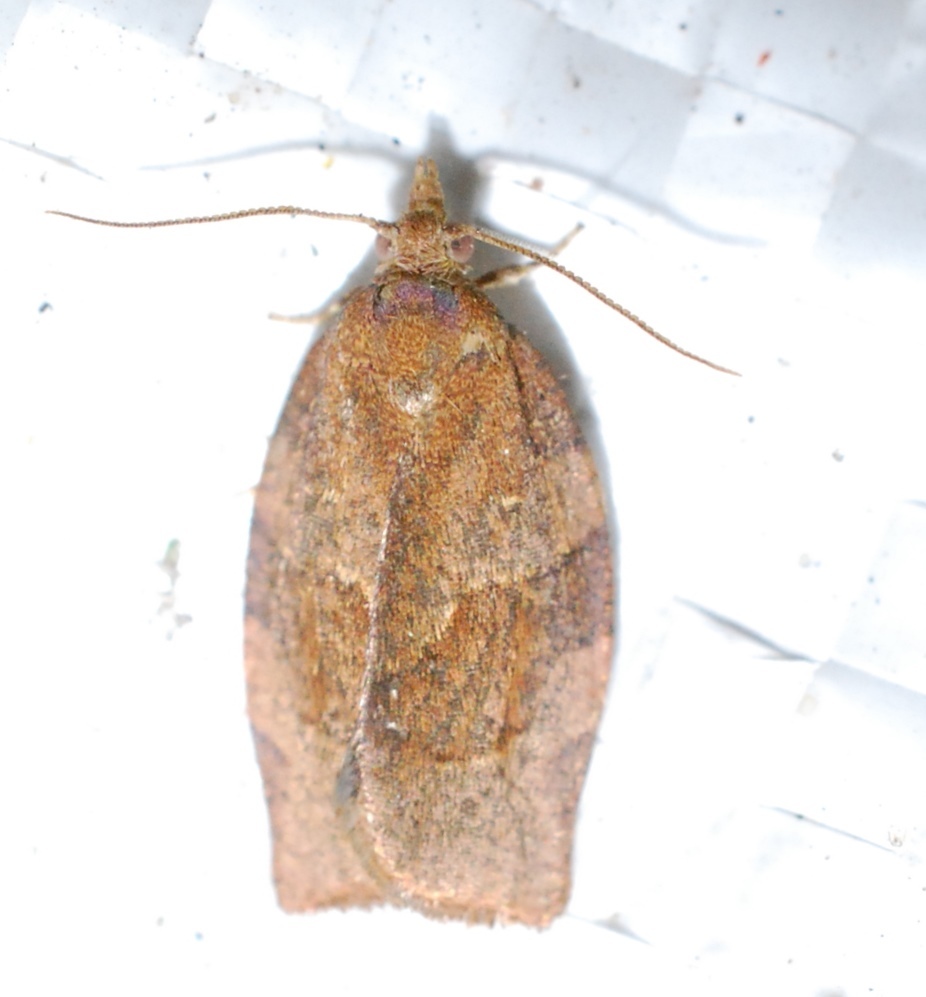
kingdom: Animalia
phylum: Arthropoda
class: Insecta
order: Lepidoptera
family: Tortricidae
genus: Pandemis
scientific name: Pandemis heparana
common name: Dark fruit-tree tortrix
